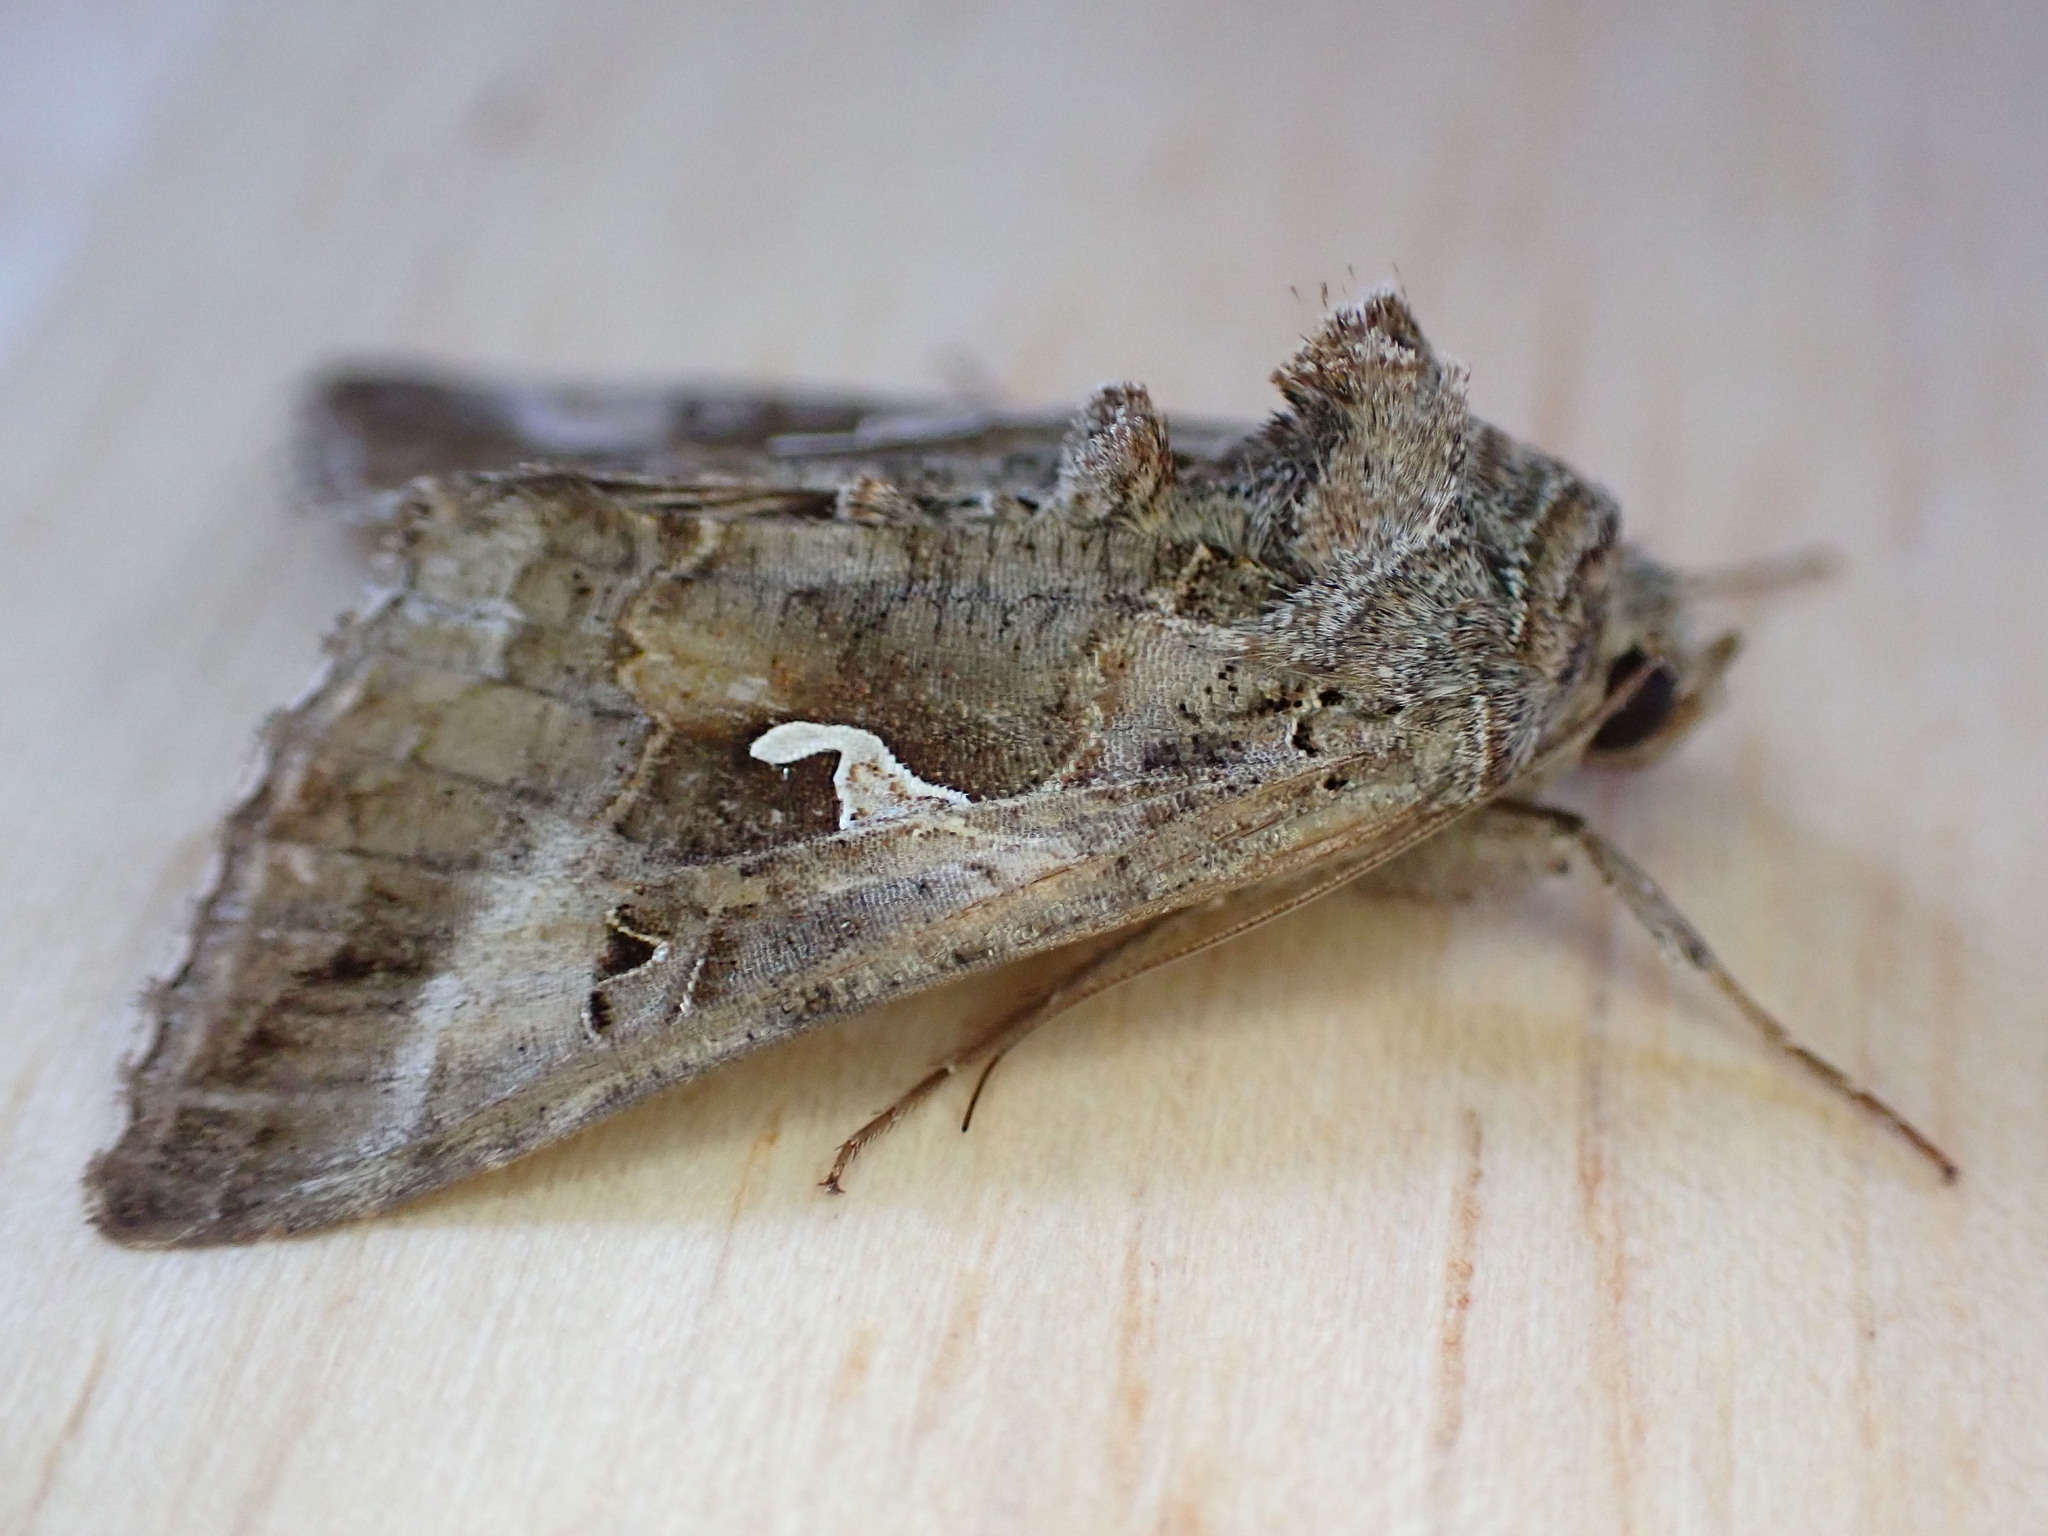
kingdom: Animalia
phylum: Arthropoda
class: Insecta
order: Lepidoptera
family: Noctuidae
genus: Autographa
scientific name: Autographa gamma
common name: Silver y
